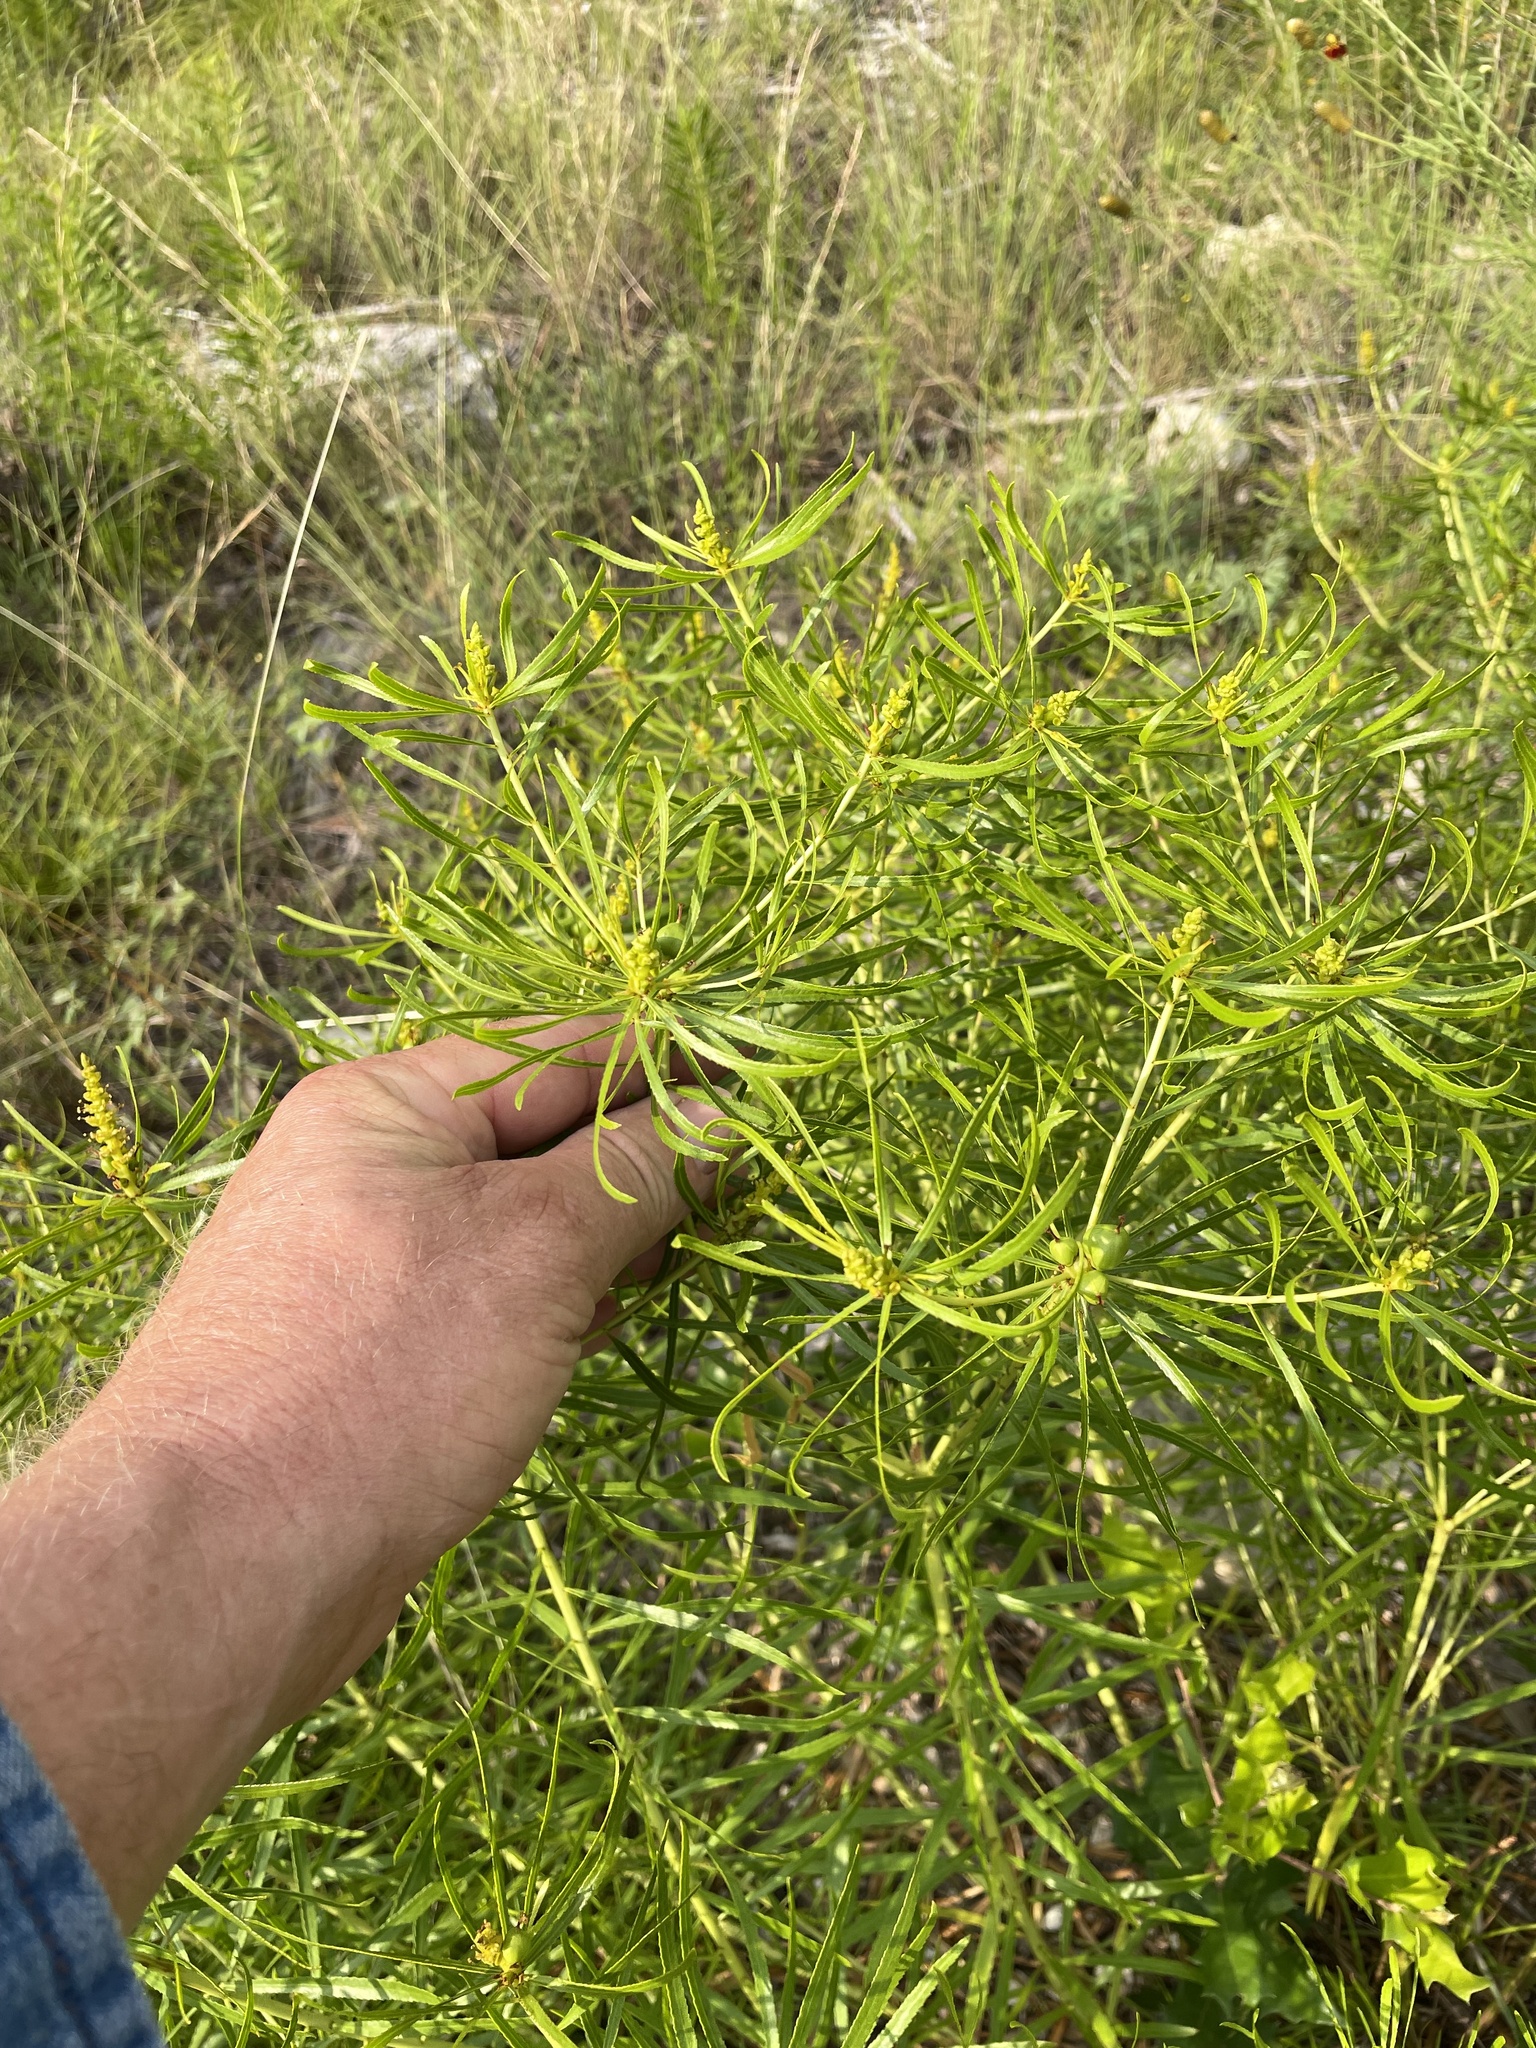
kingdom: Plantae
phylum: Tracheophyta
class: Magnoliopsida
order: Malpighiales
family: Euphorbiaceae
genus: Stillingia
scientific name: Stillingia texana
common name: Texas stillingia
